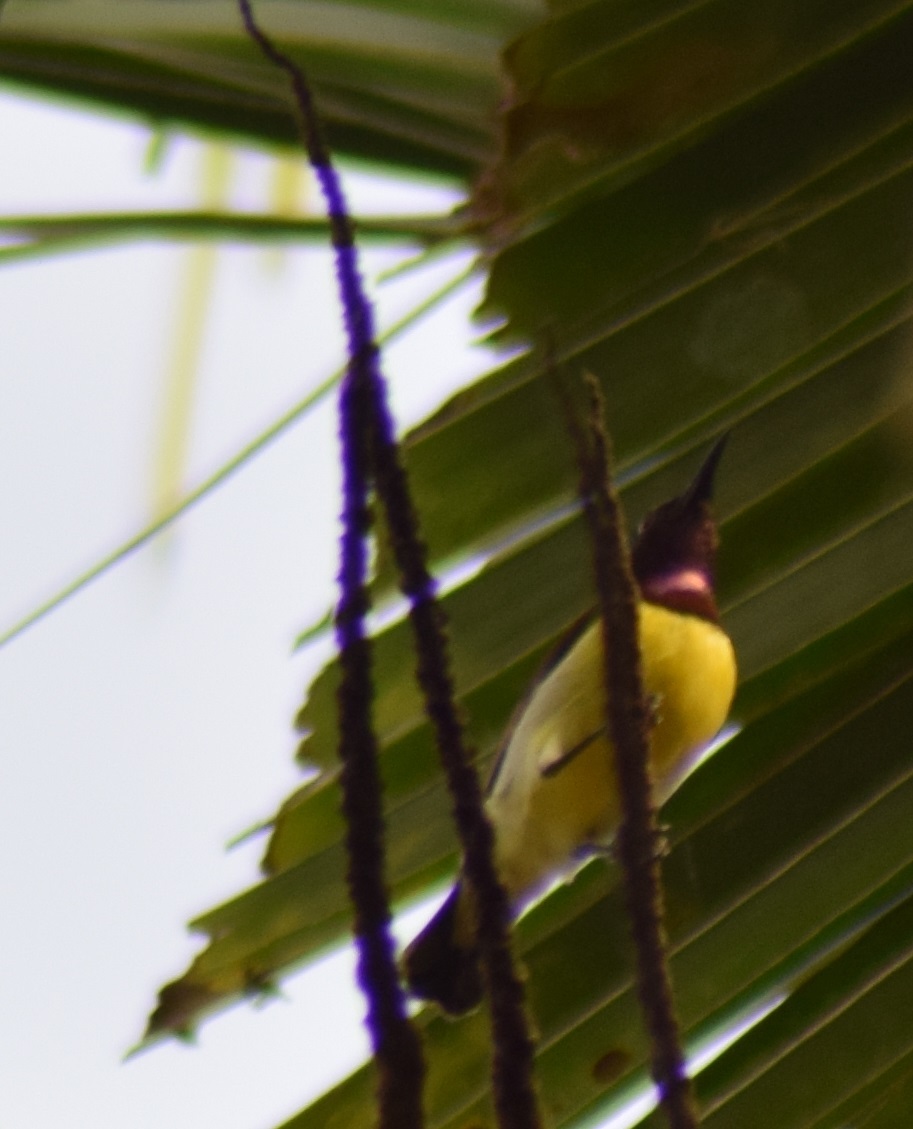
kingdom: Animalia
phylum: Chordata
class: Aves
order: Passeriformes
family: Nectariniidae
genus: Leptocoma
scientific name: Leptocoma zeylonica
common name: Purple-rumped sunbird
